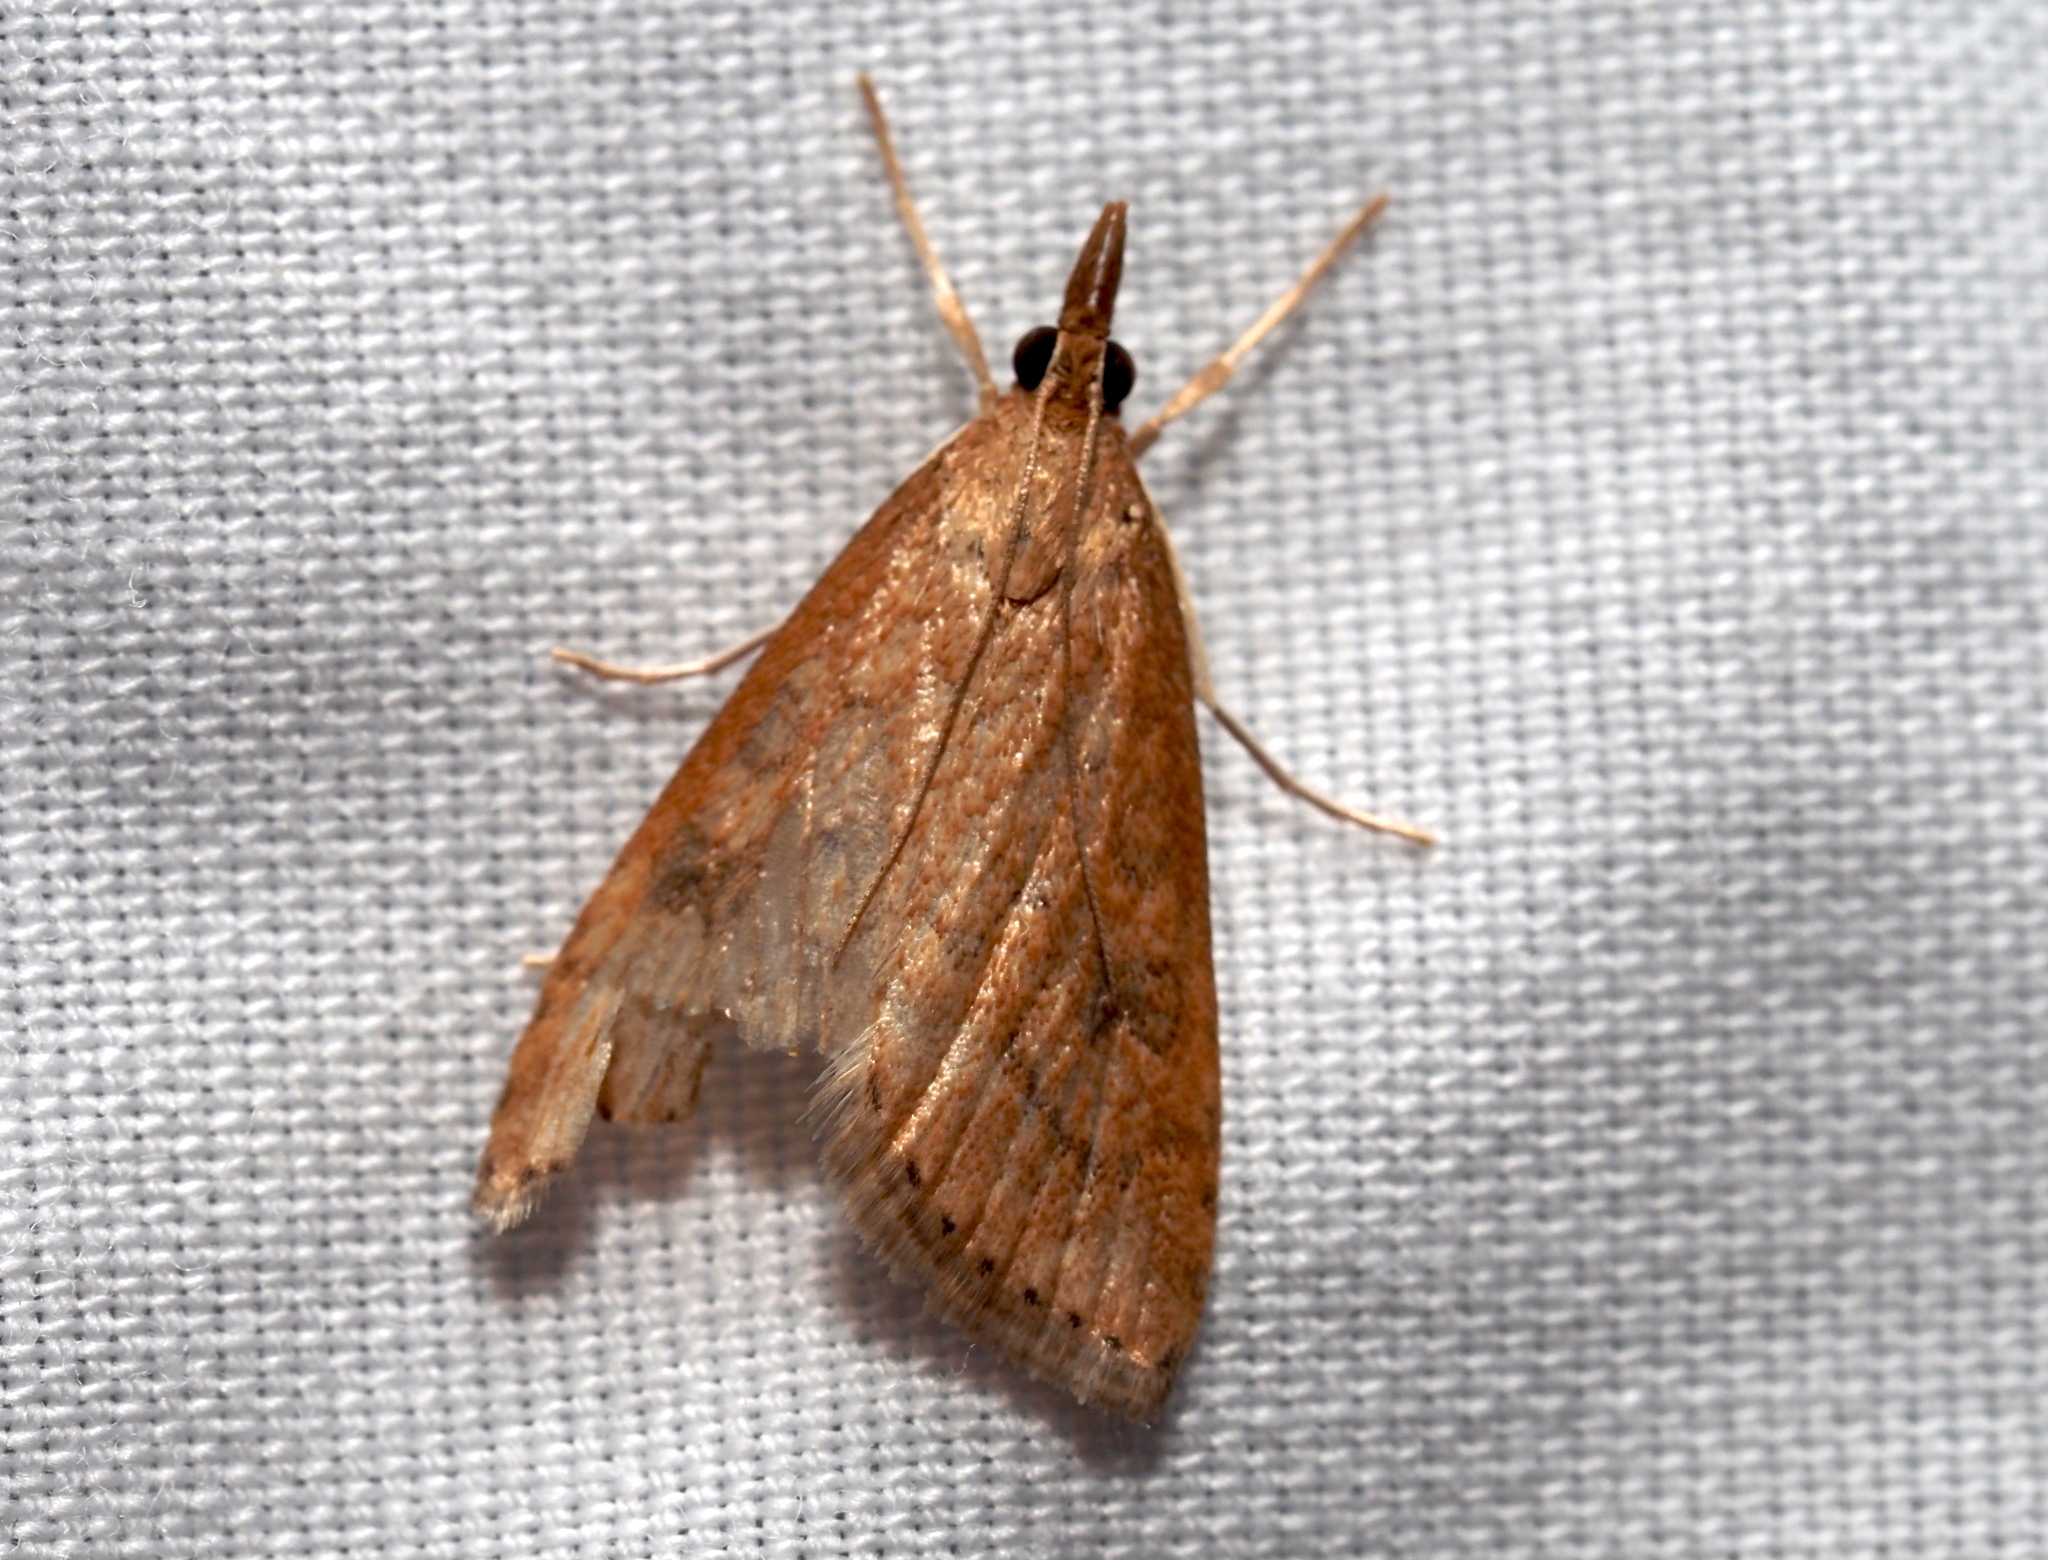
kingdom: Animalia
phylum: Arthropoda
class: Insecta
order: Lepidoptera
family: Crambidae
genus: Udea
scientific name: Udea rubigalis
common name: Celery leaftier moth
